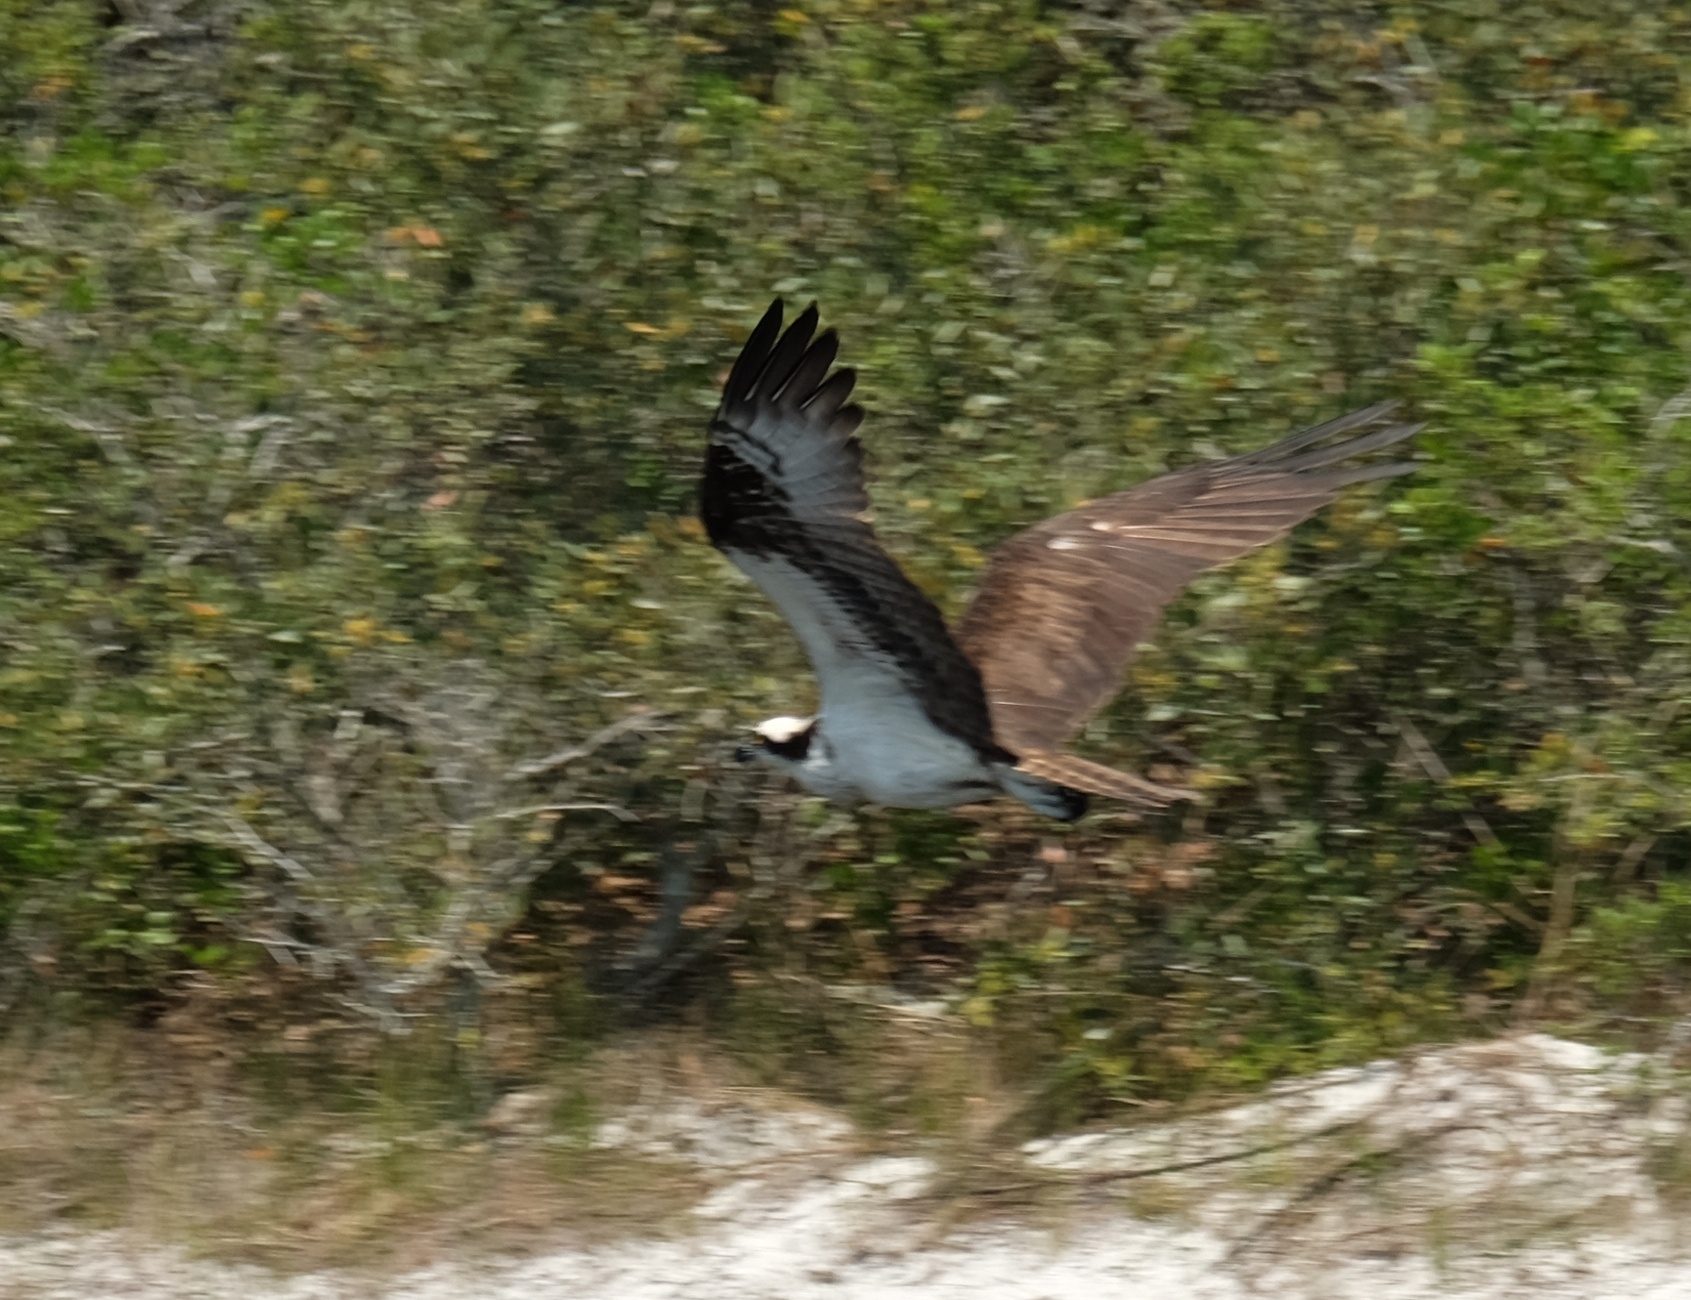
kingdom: Animalia
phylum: Chordata
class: Aves
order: Accipitriformes
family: Pandionidae
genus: Pandion
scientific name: Pandion haliaetus
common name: Osprey
